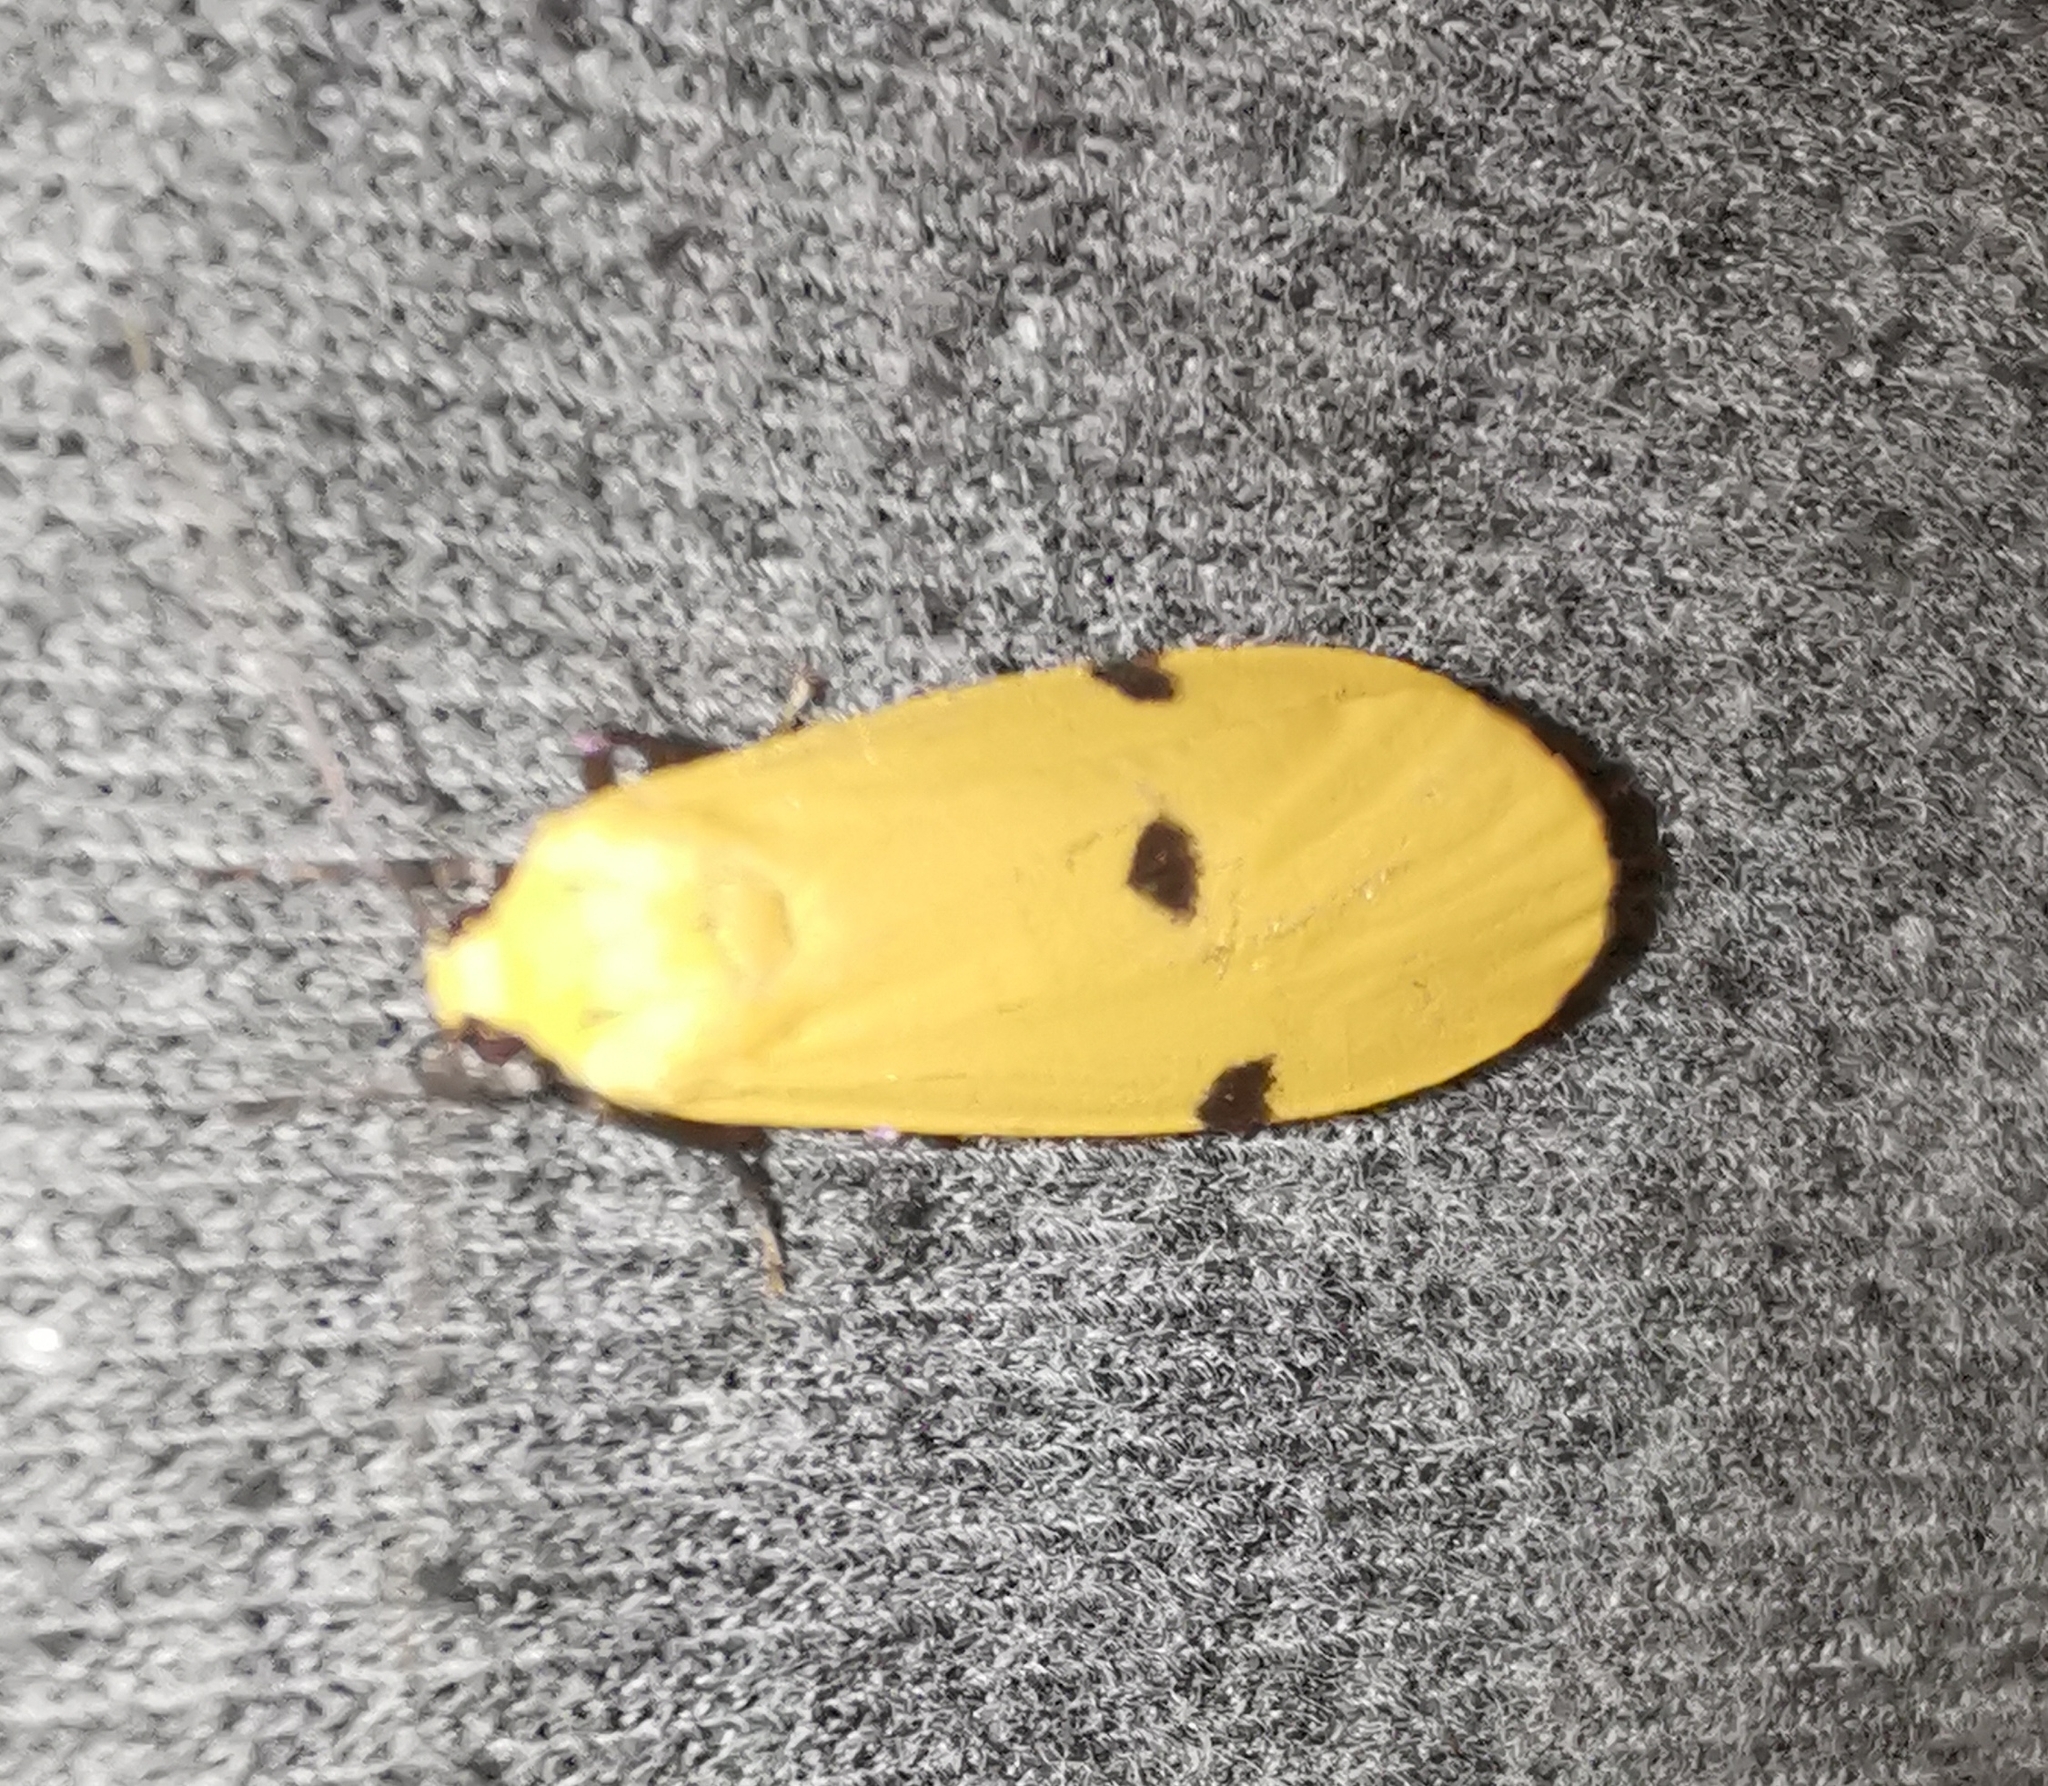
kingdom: Animalia
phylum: Arthropoda
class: Insecta
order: Lepidoptera
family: Erebidae
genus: Lithosia
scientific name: Lithosia quadra
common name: Four-spotted footman
